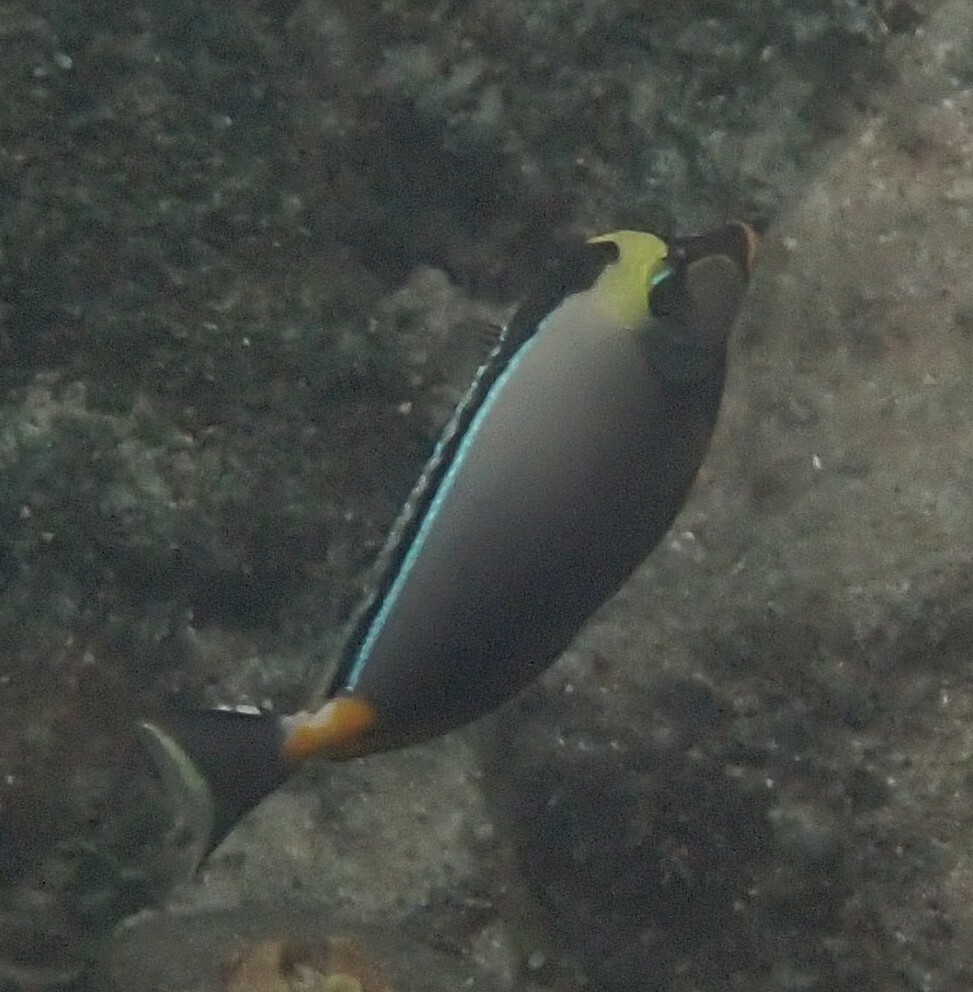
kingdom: Animalia
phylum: Chordata
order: Perciformes
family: Acanthuridae
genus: Naso
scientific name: Naso lituratus
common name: Orangespine unicornfish
